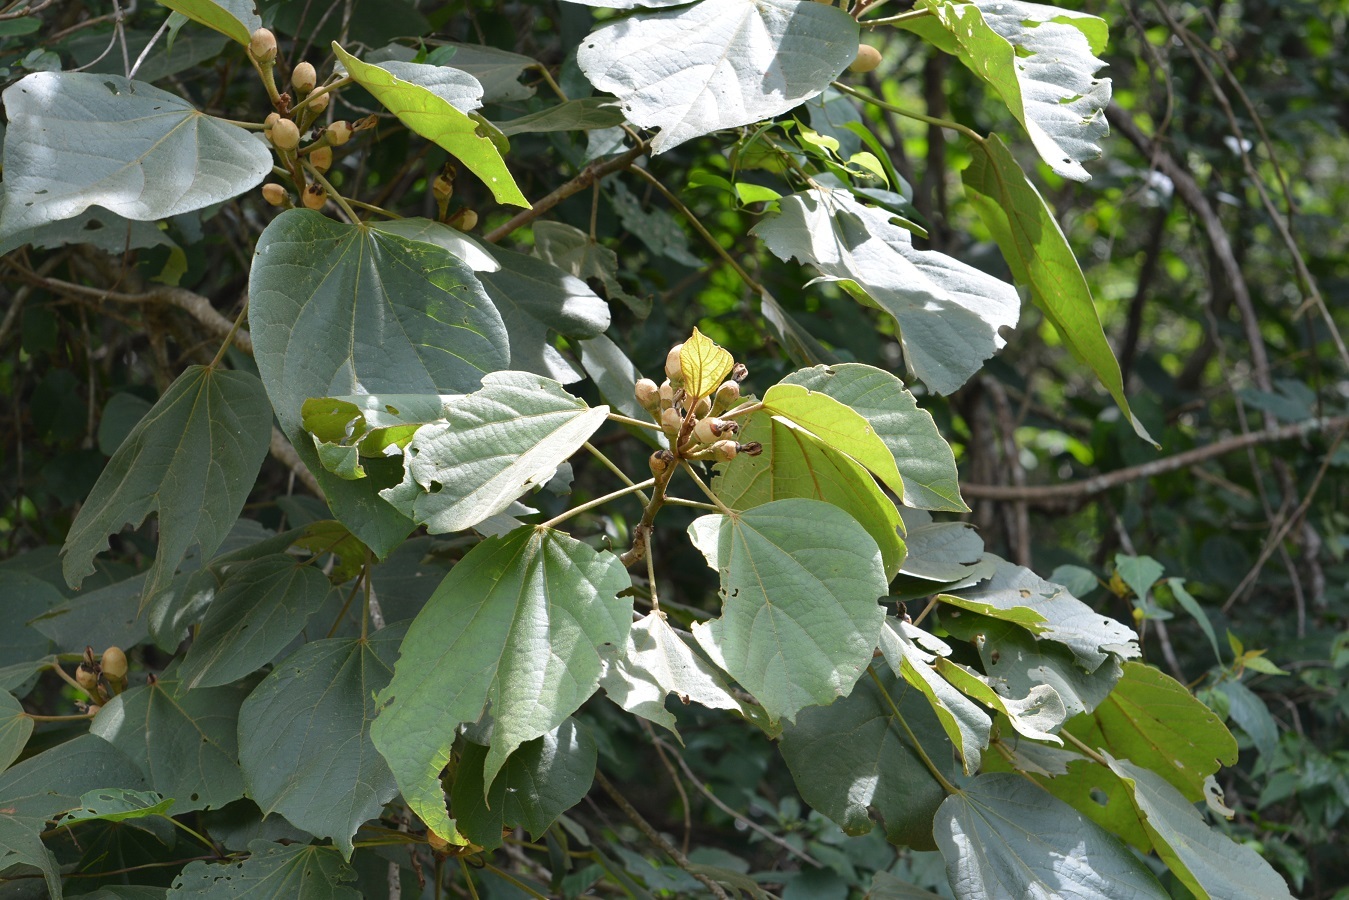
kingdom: Plantae
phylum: Tracheophyta
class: Magnoliopsida
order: Malvales
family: Malvaceae
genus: Hampea
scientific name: Hampea mexicana
